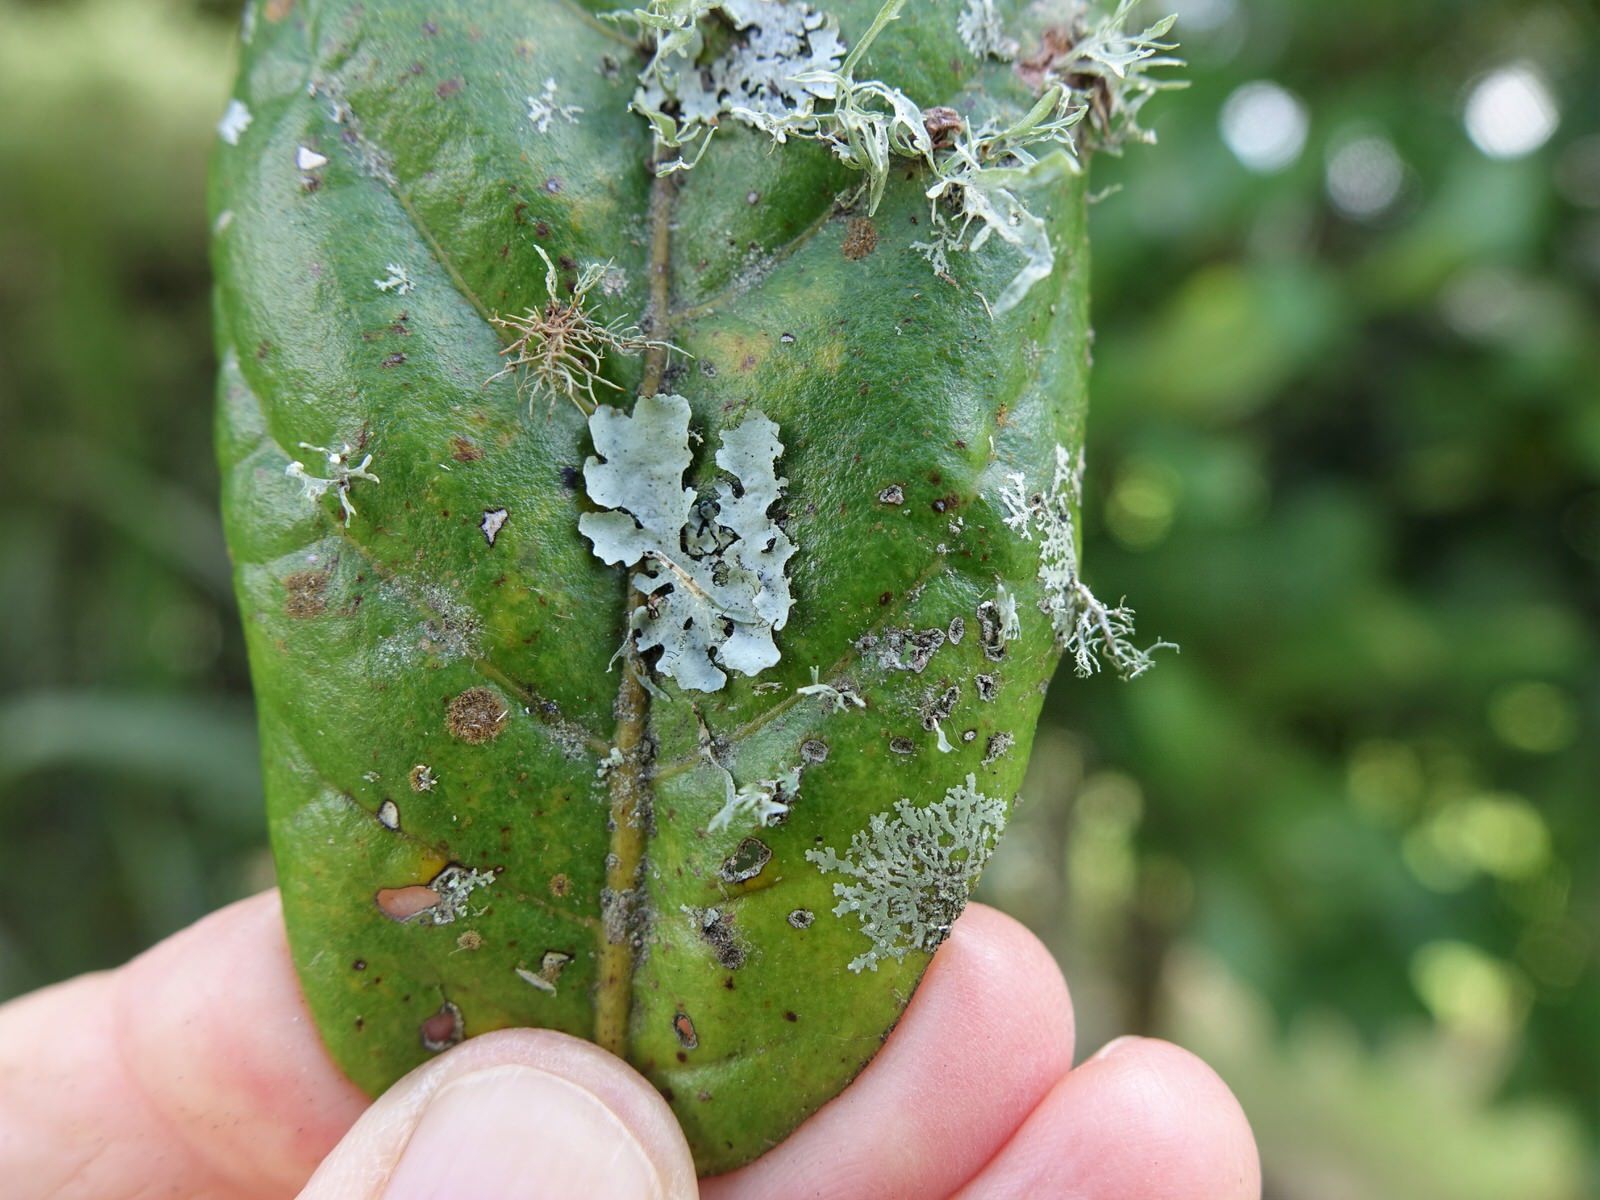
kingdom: Fungi
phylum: Ascomycota
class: Lecanoromycetes
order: Lecanorales
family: Parmeliaceae
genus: Parmotrema
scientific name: Parmotrema perlatum
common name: Black stone flower
